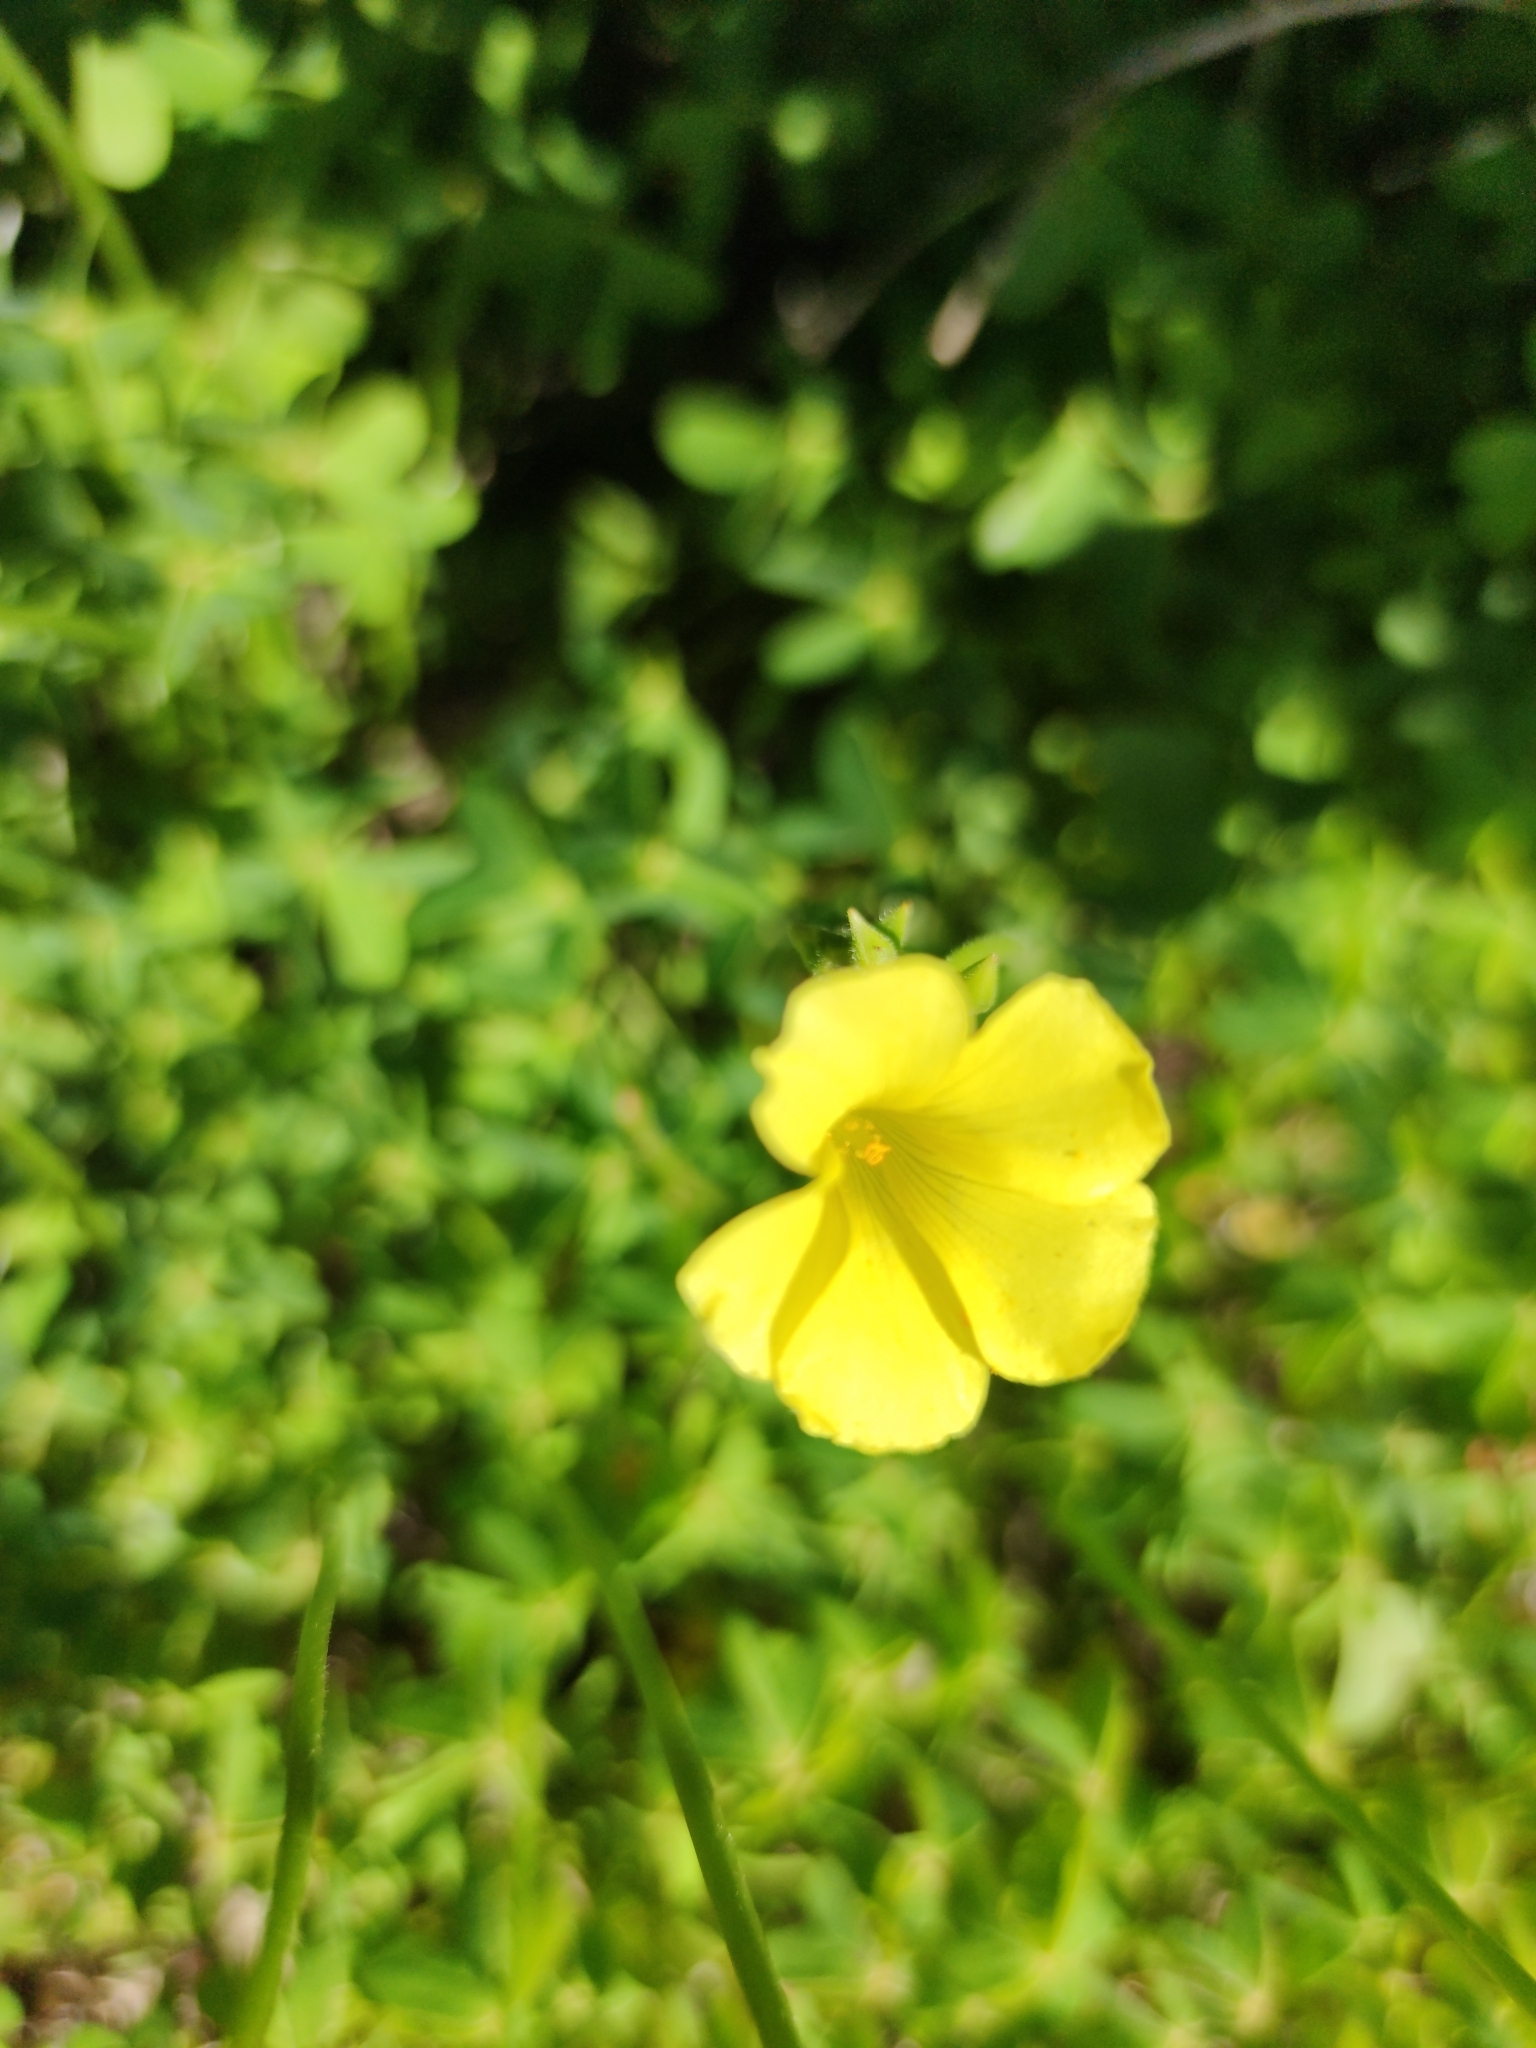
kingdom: Plantae
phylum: Tracheophyta
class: Magnoliopsida
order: Oxalidales
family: Oxalidaceae
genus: Oxalis
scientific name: Oxalis pes-caprae
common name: Bermuda-buttercup
